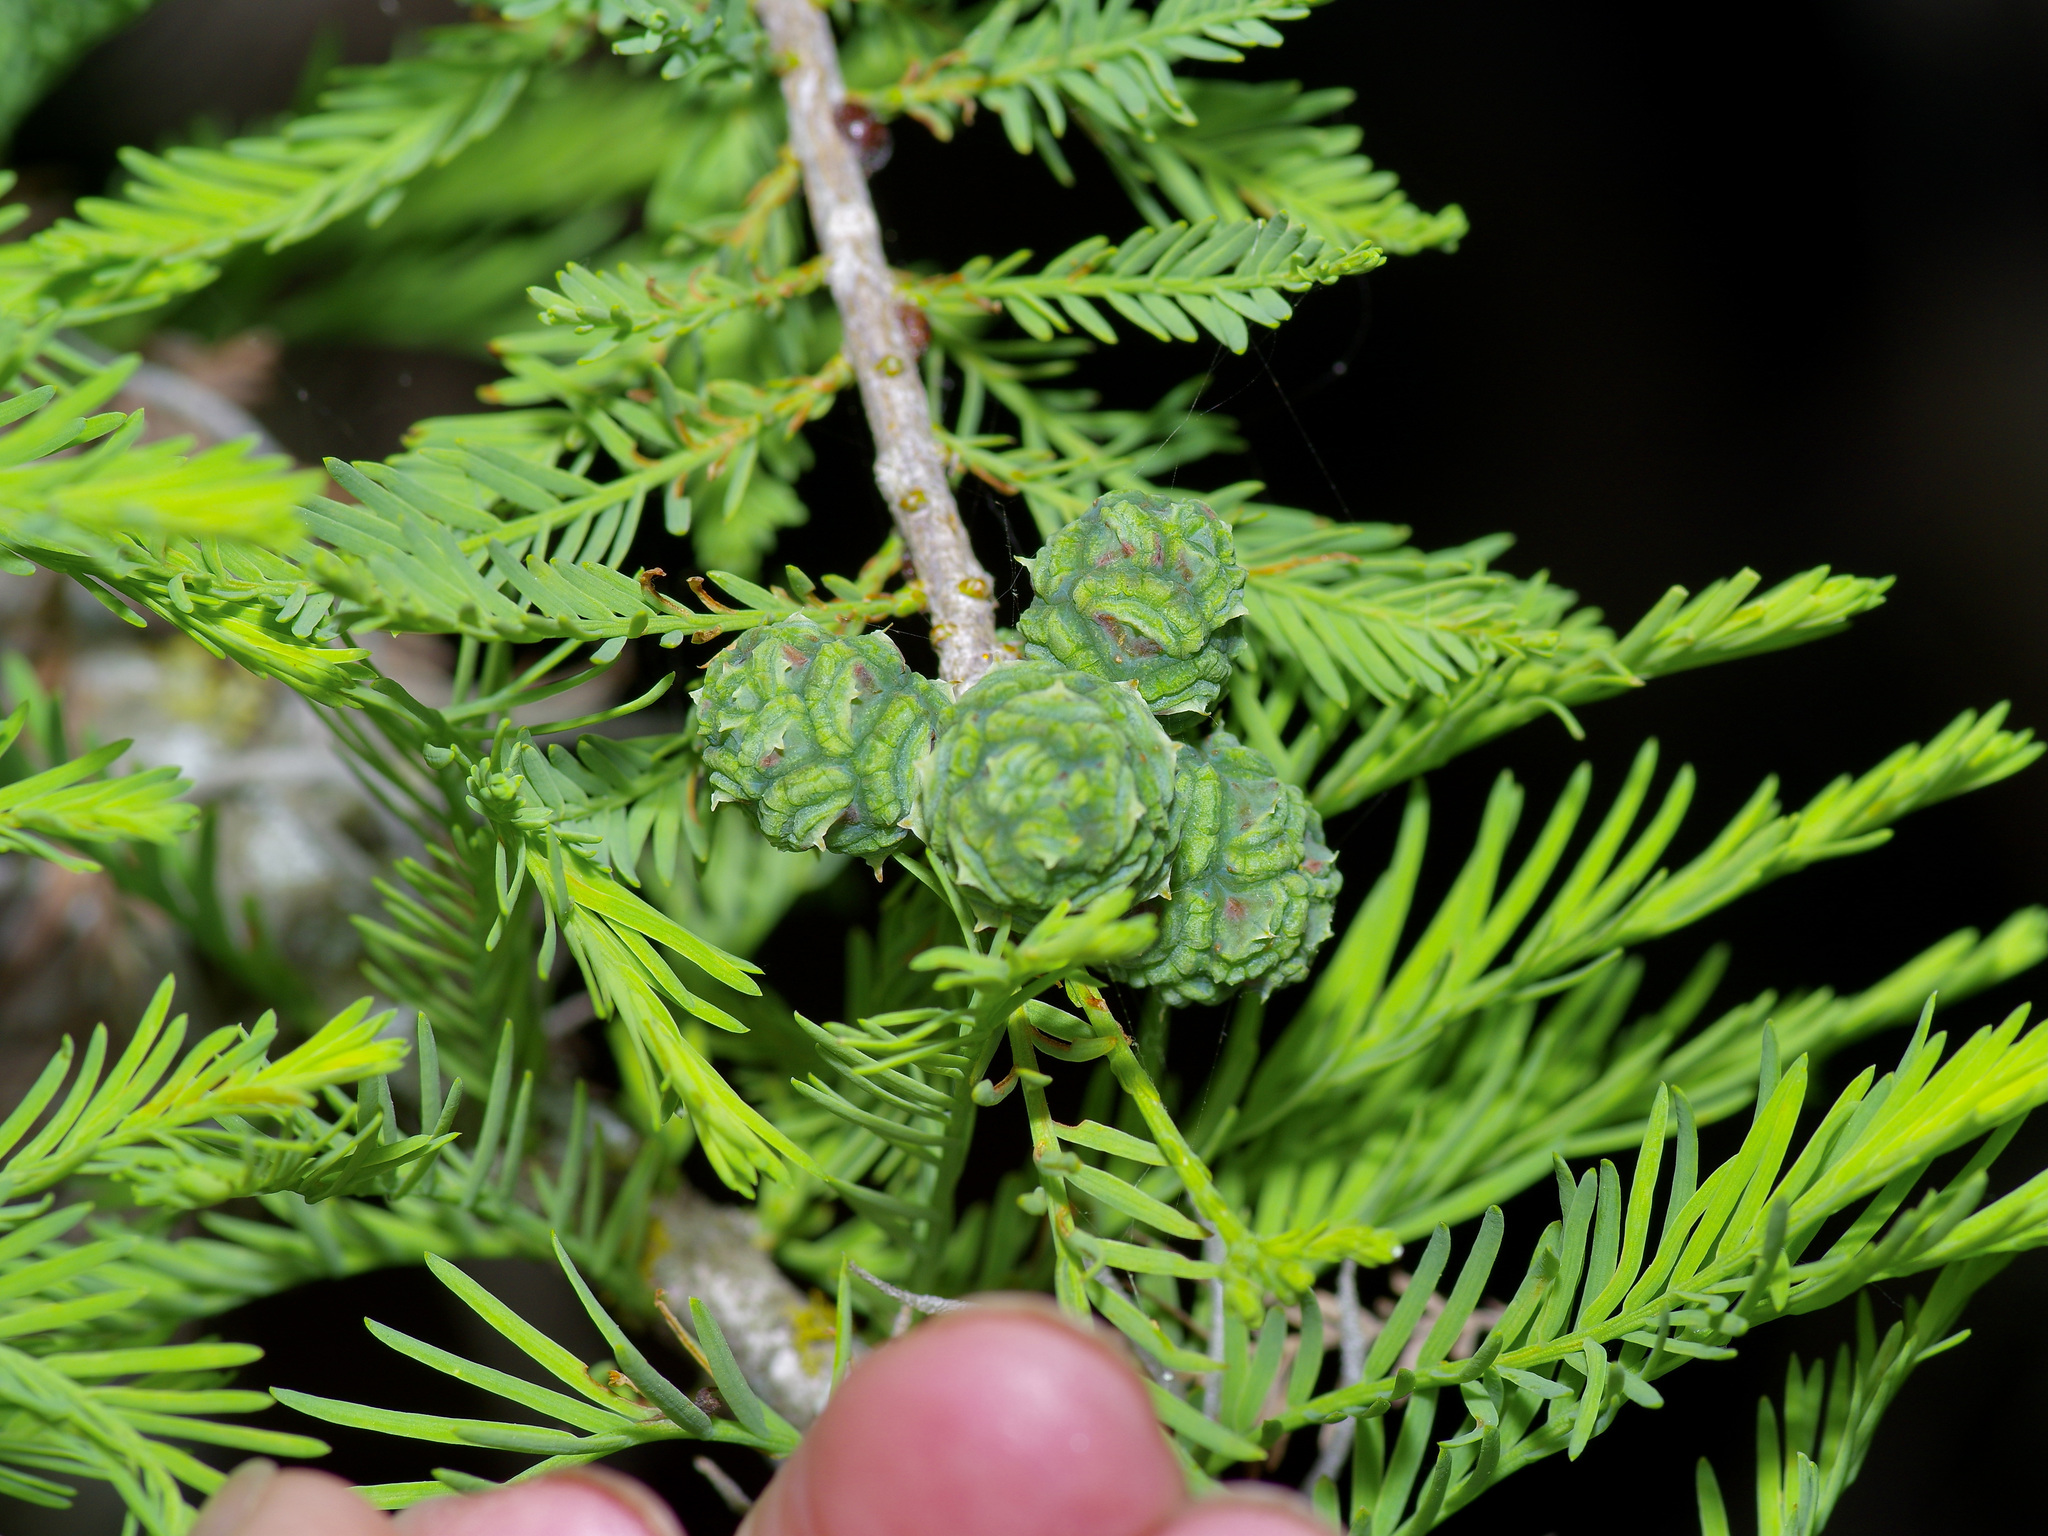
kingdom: Plantae
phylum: Tracheophyta
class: Pinopsida
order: Pinales
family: Cupressaceae
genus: Taxodium
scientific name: Taxodium distichum
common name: Bald cypress
